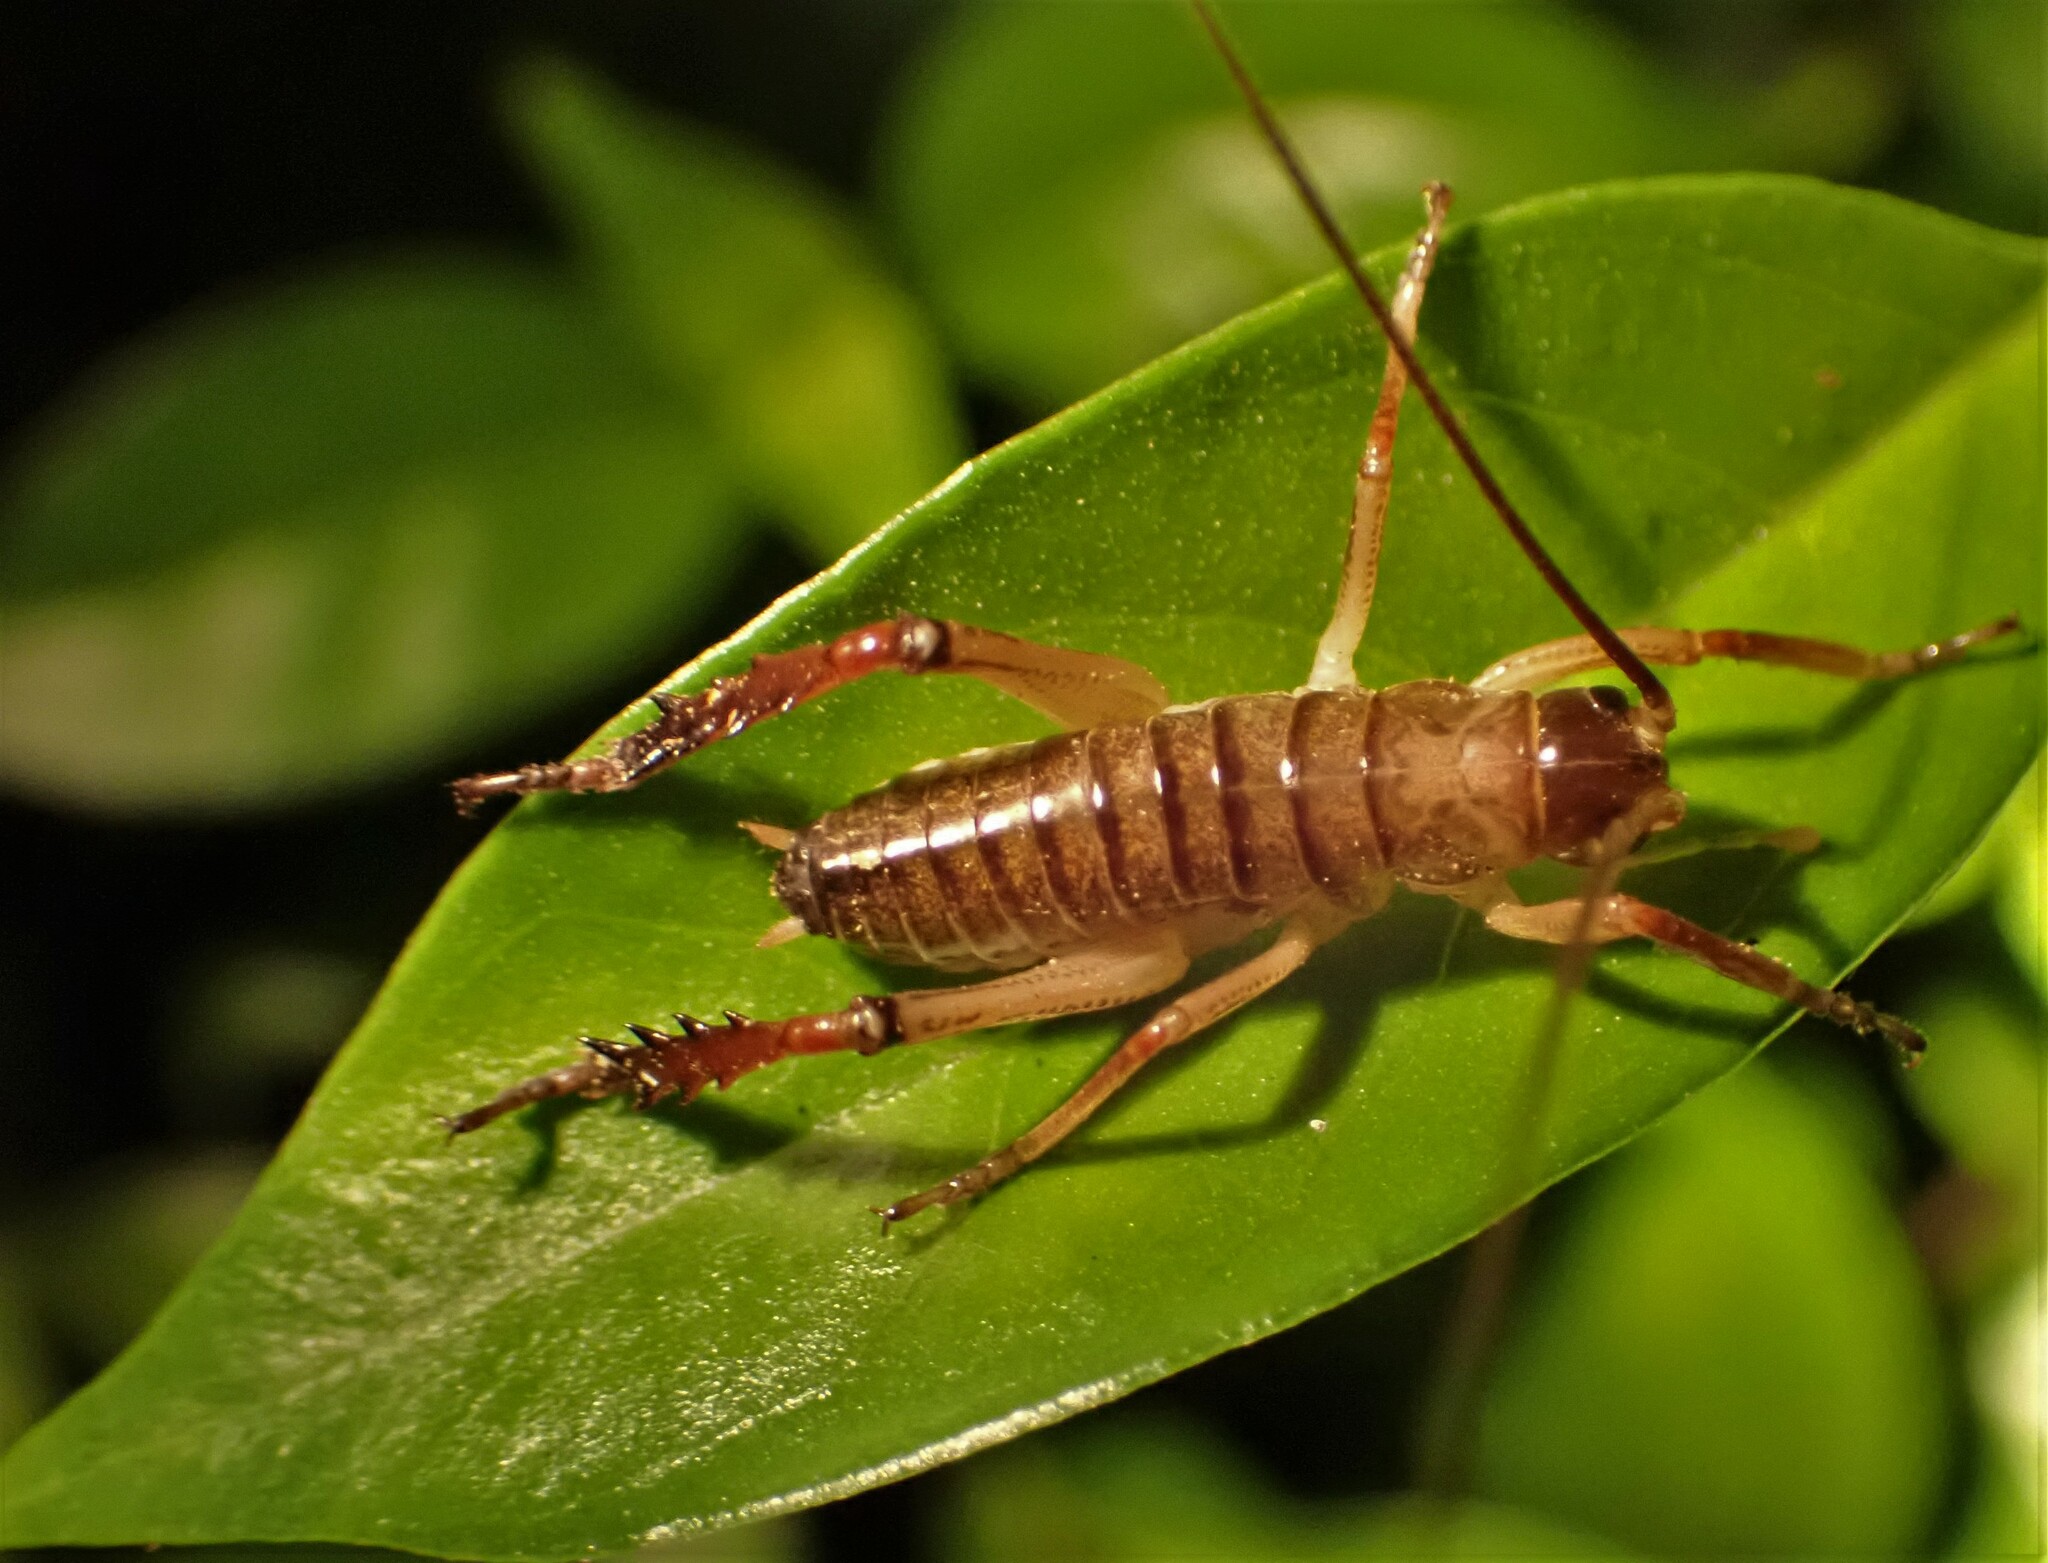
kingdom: Animalia
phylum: Arthropoda
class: Insecta
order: Orthoptera
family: Anostostomatidae
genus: Hemideina
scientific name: Hemideina thoracica
